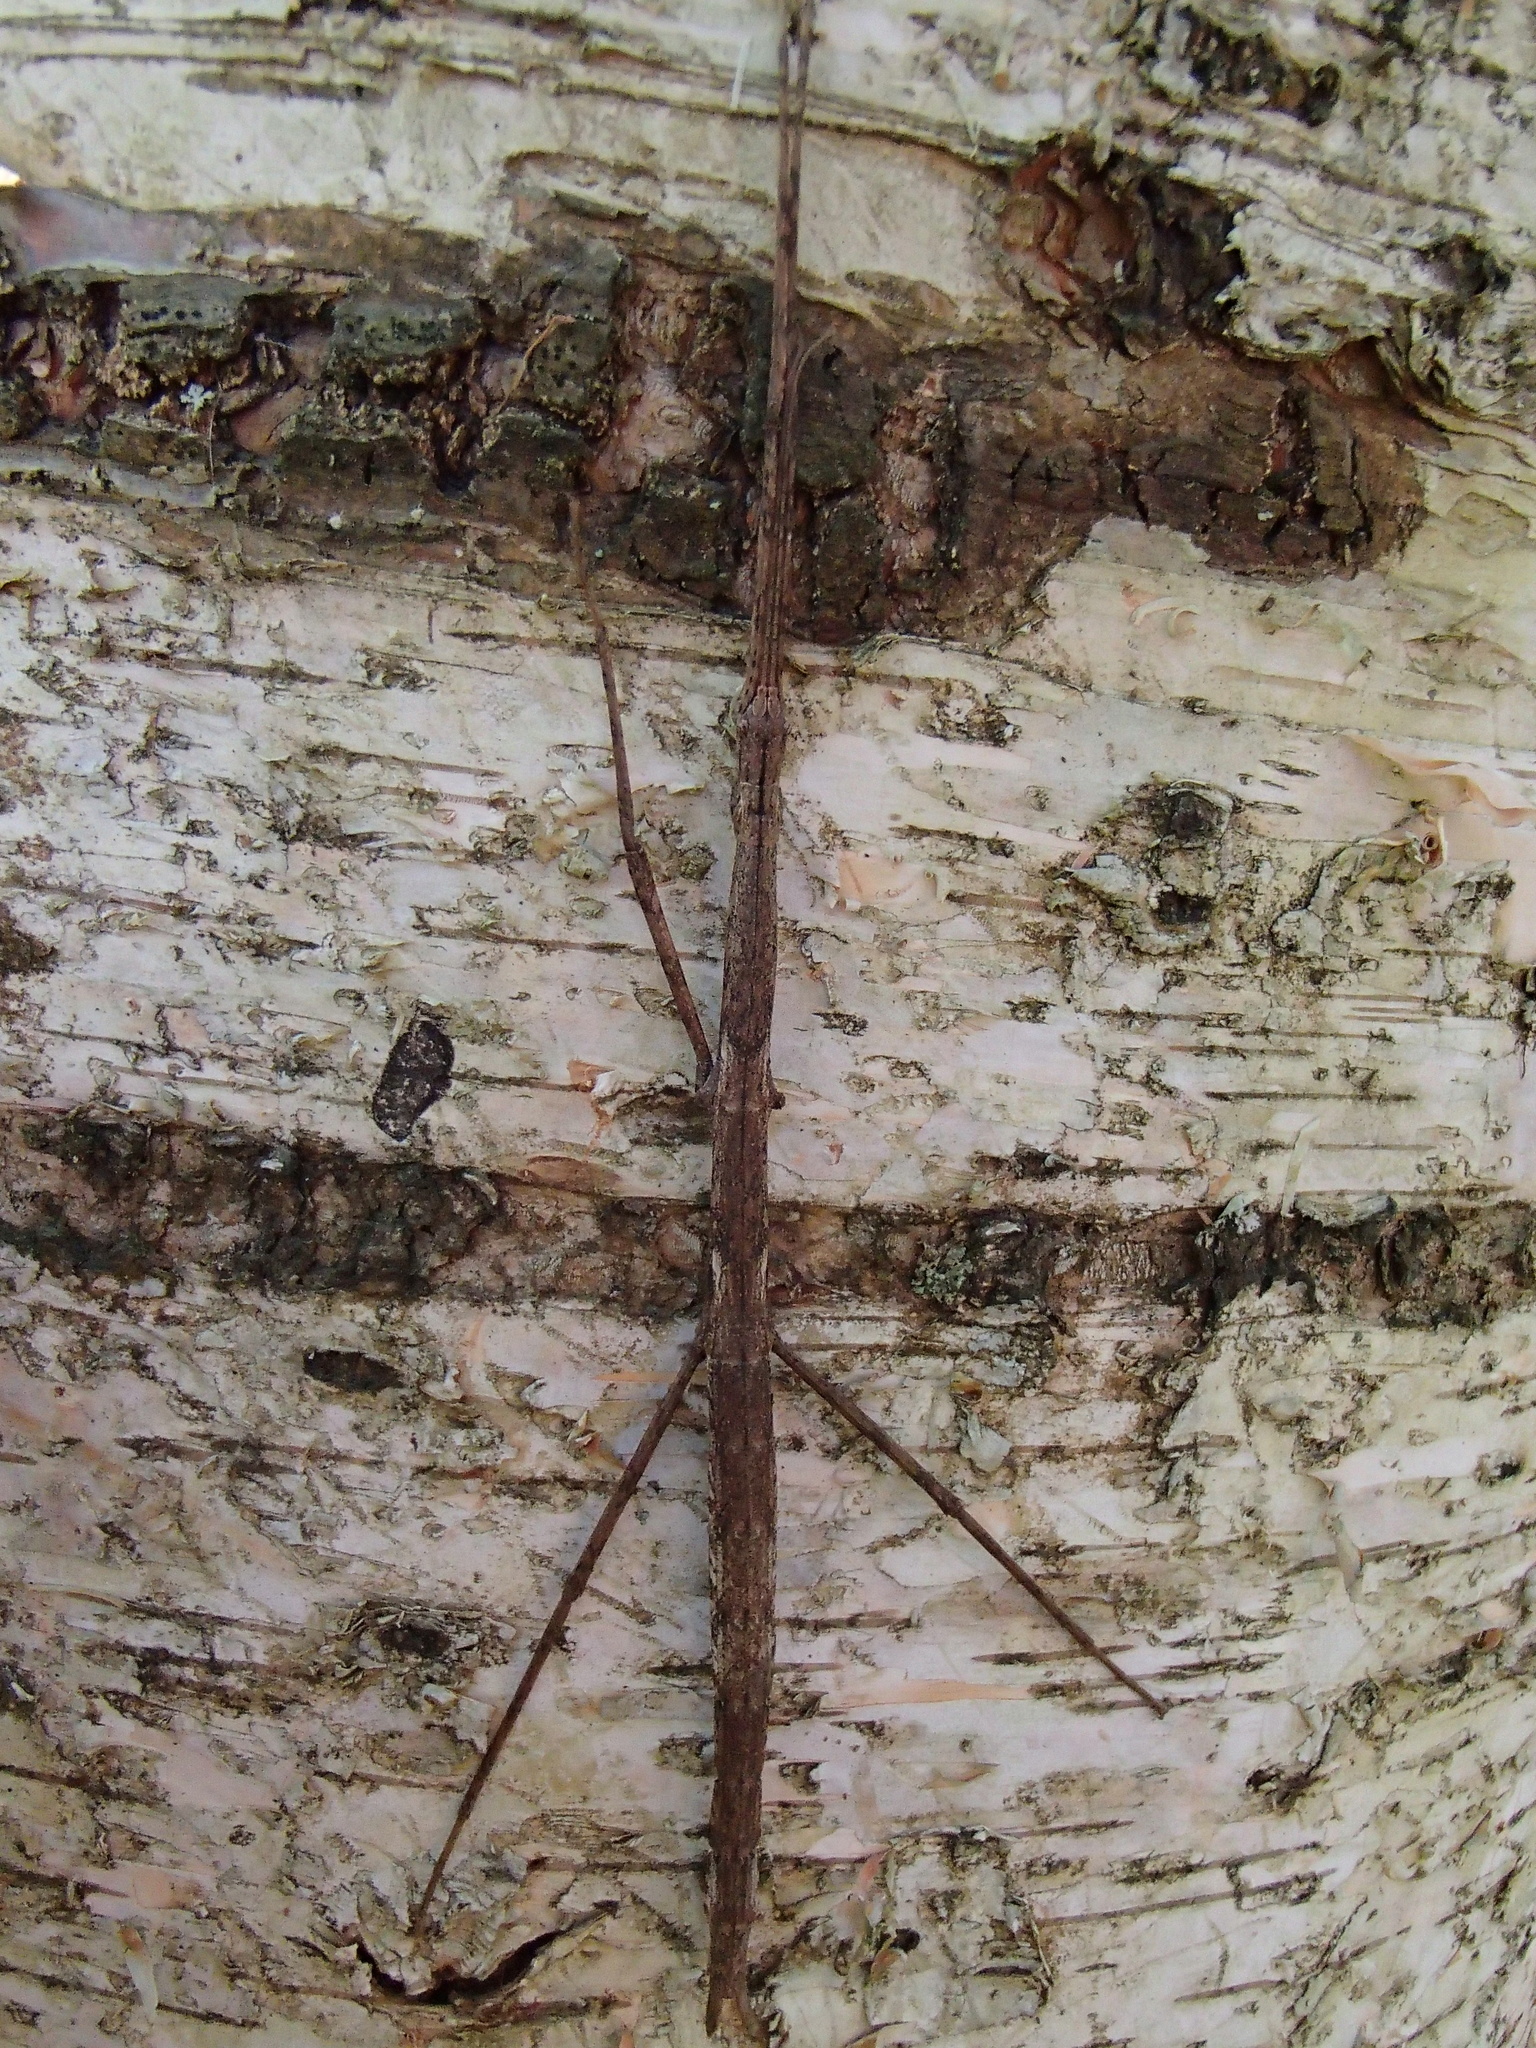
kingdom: Animalia
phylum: Arthropoda
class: Insecta
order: Phasmida
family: Phasmatidae
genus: Clitarchus
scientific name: Clitarchus hookeri
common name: Smooth stick insect
